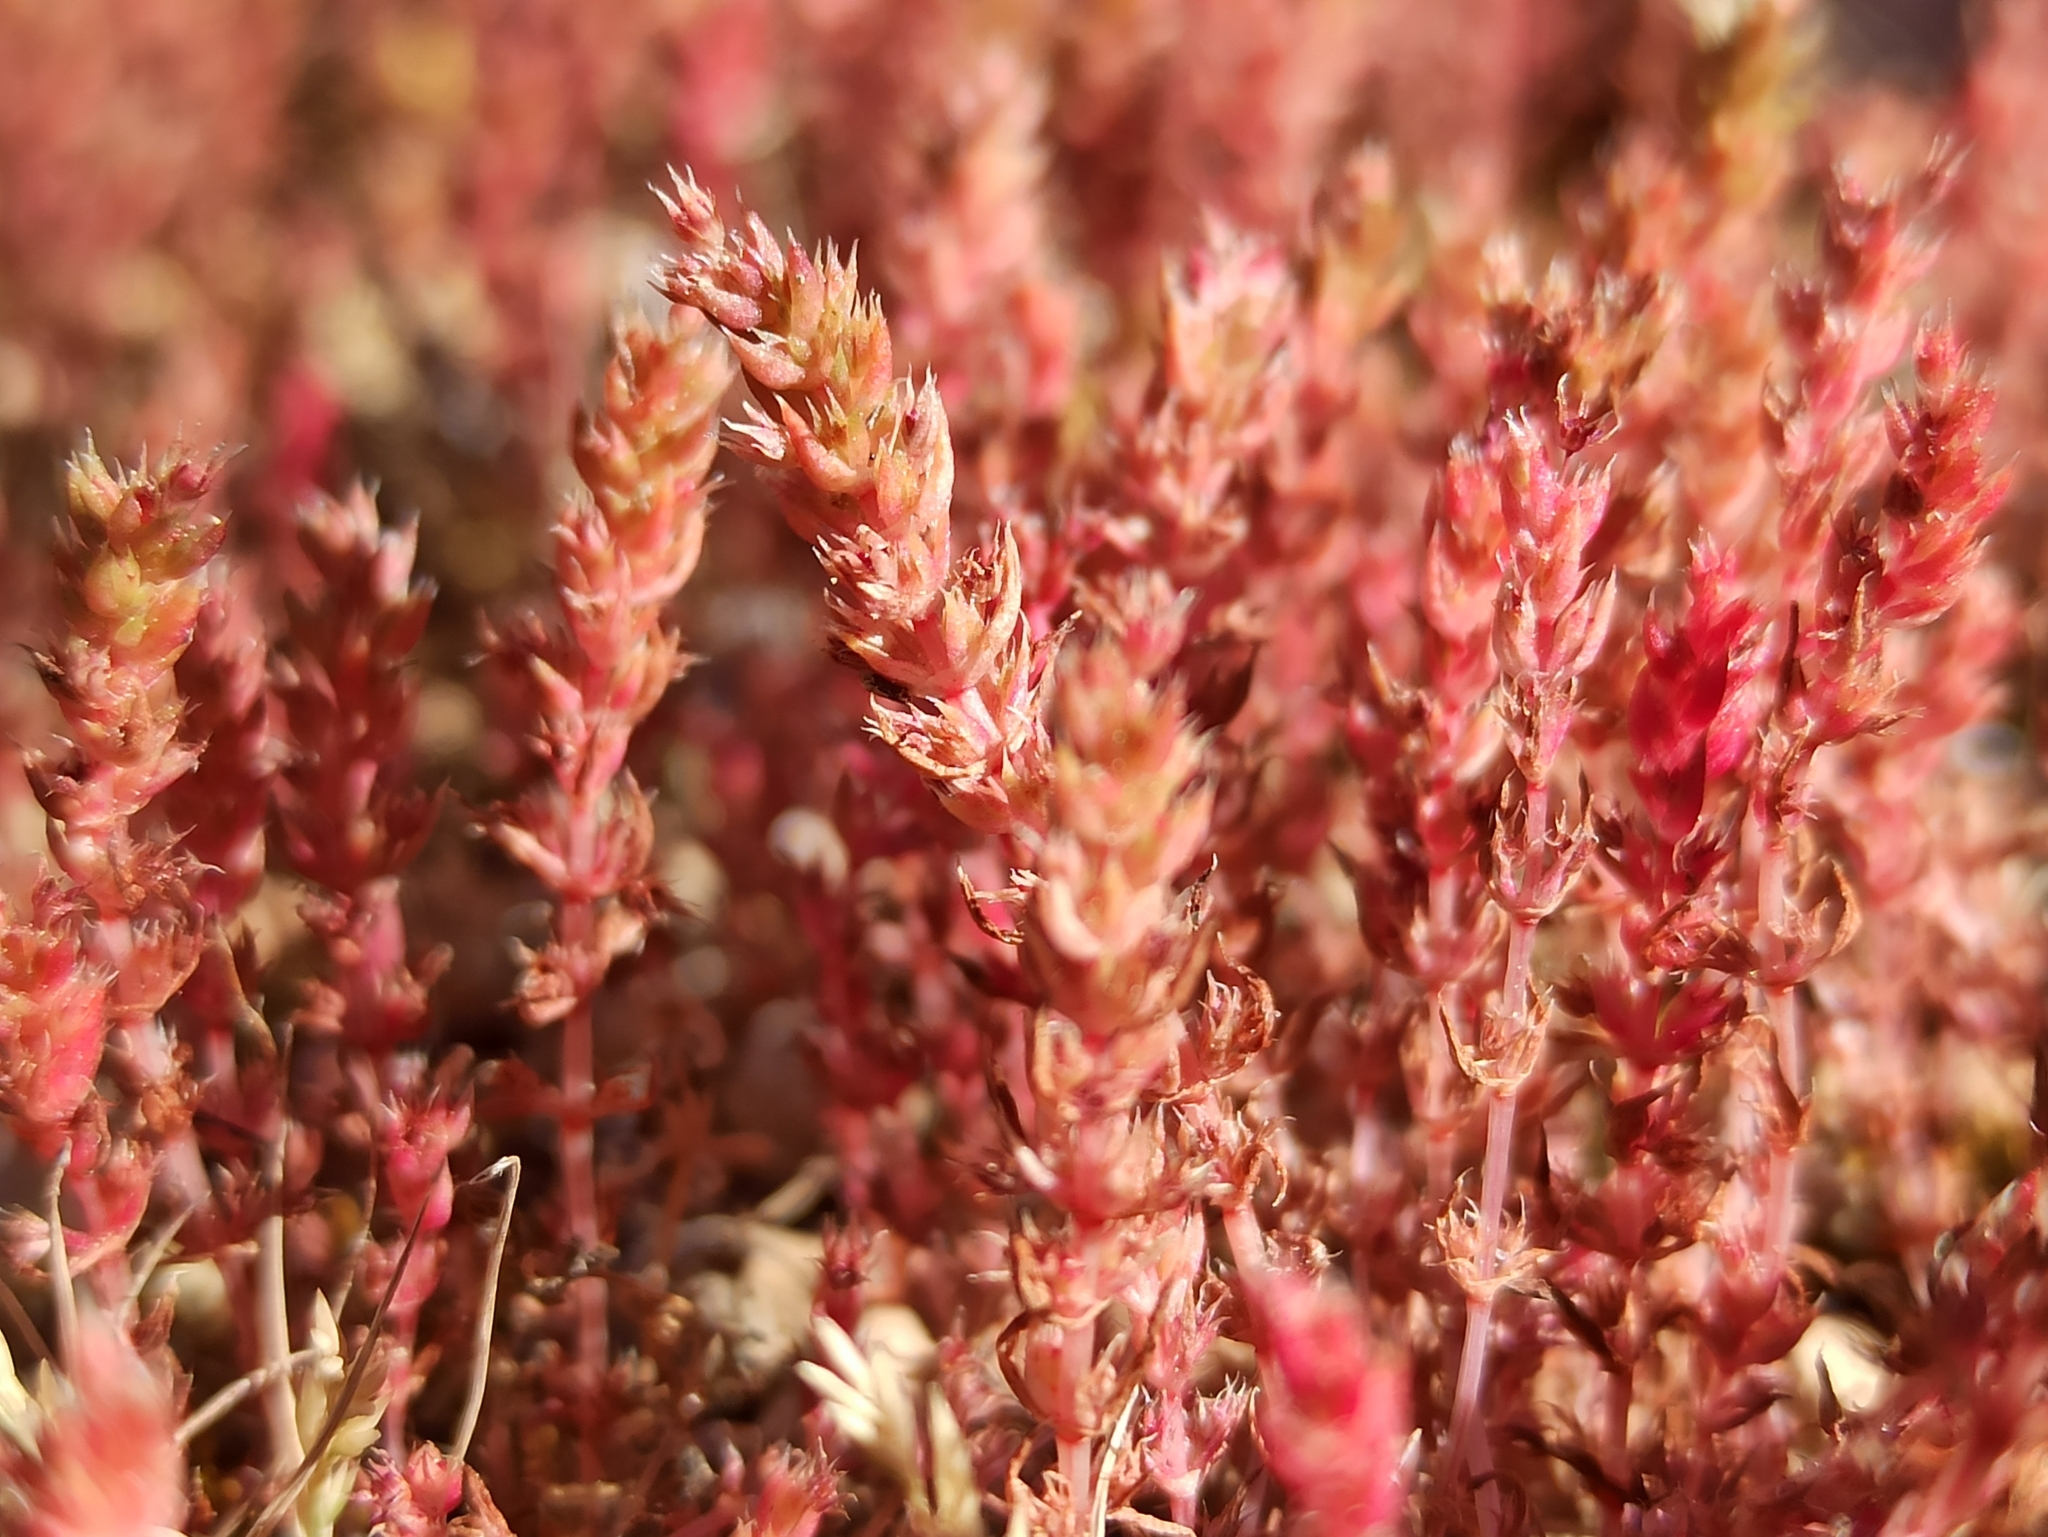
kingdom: Plantae
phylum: Tracheophyta
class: Magnoliopsida
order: Saxifragales
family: Crassulaceae
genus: Crassula
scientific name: Crassula tillaea
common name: Mossy stonecrop
